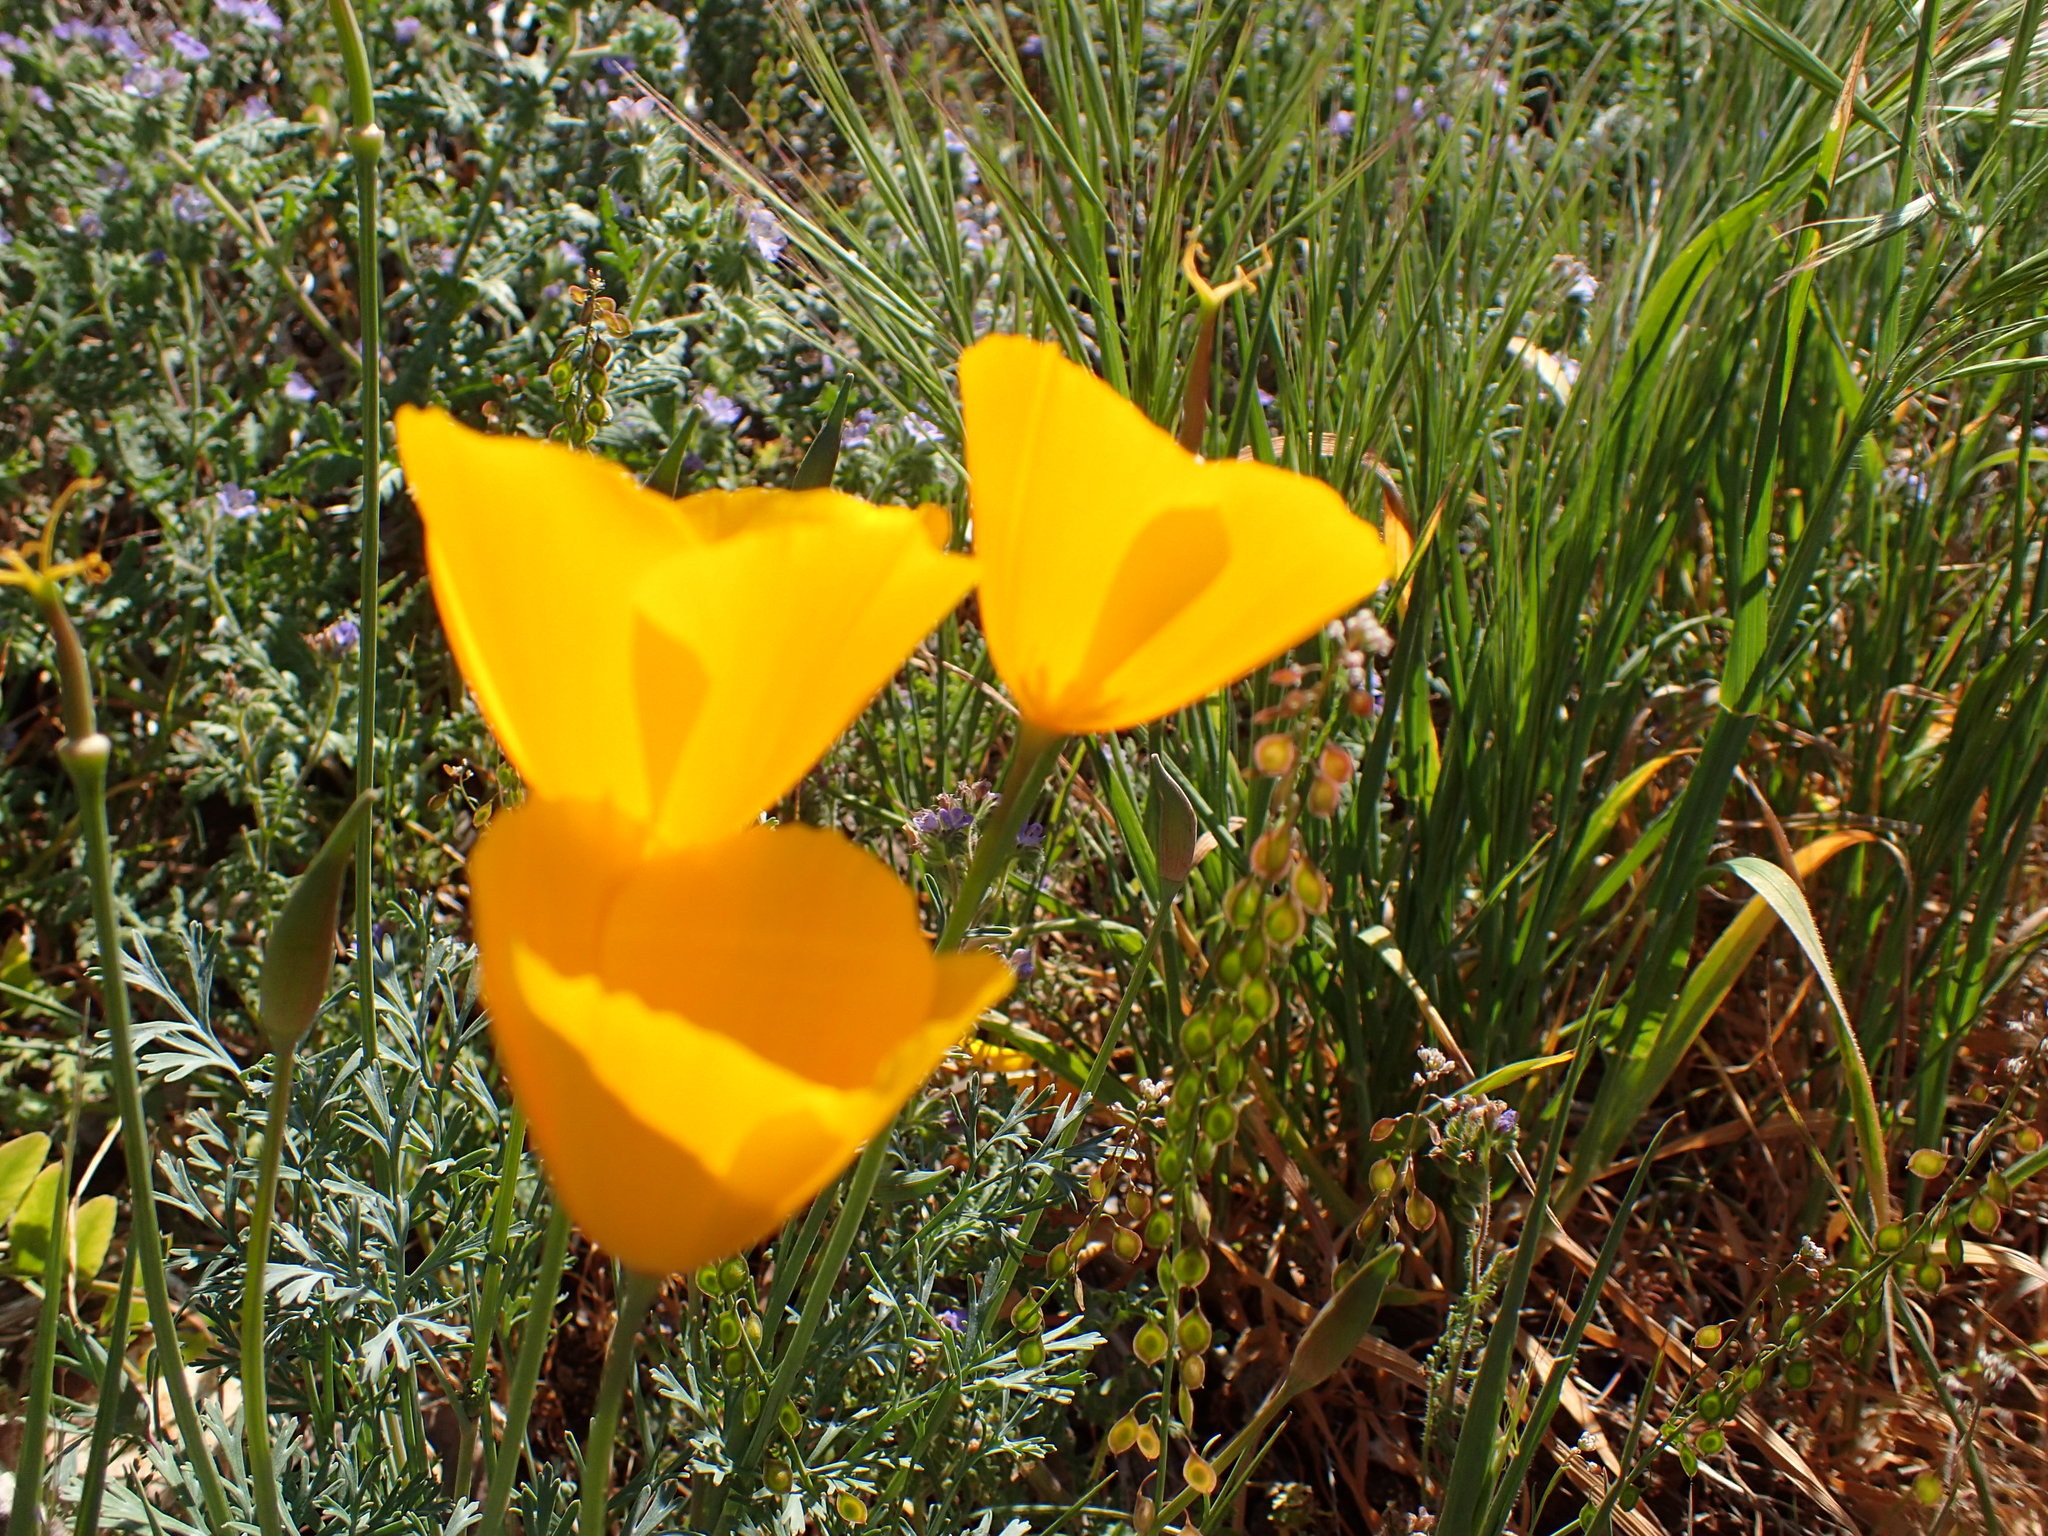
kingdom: Plantae
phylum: Tracheophyta
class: Magnoliopsida
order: Ranunculales
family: Papaveraceae
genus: Eschscholzia
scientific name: Eschscholzia caespitosa
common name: Tufted california-poppy
